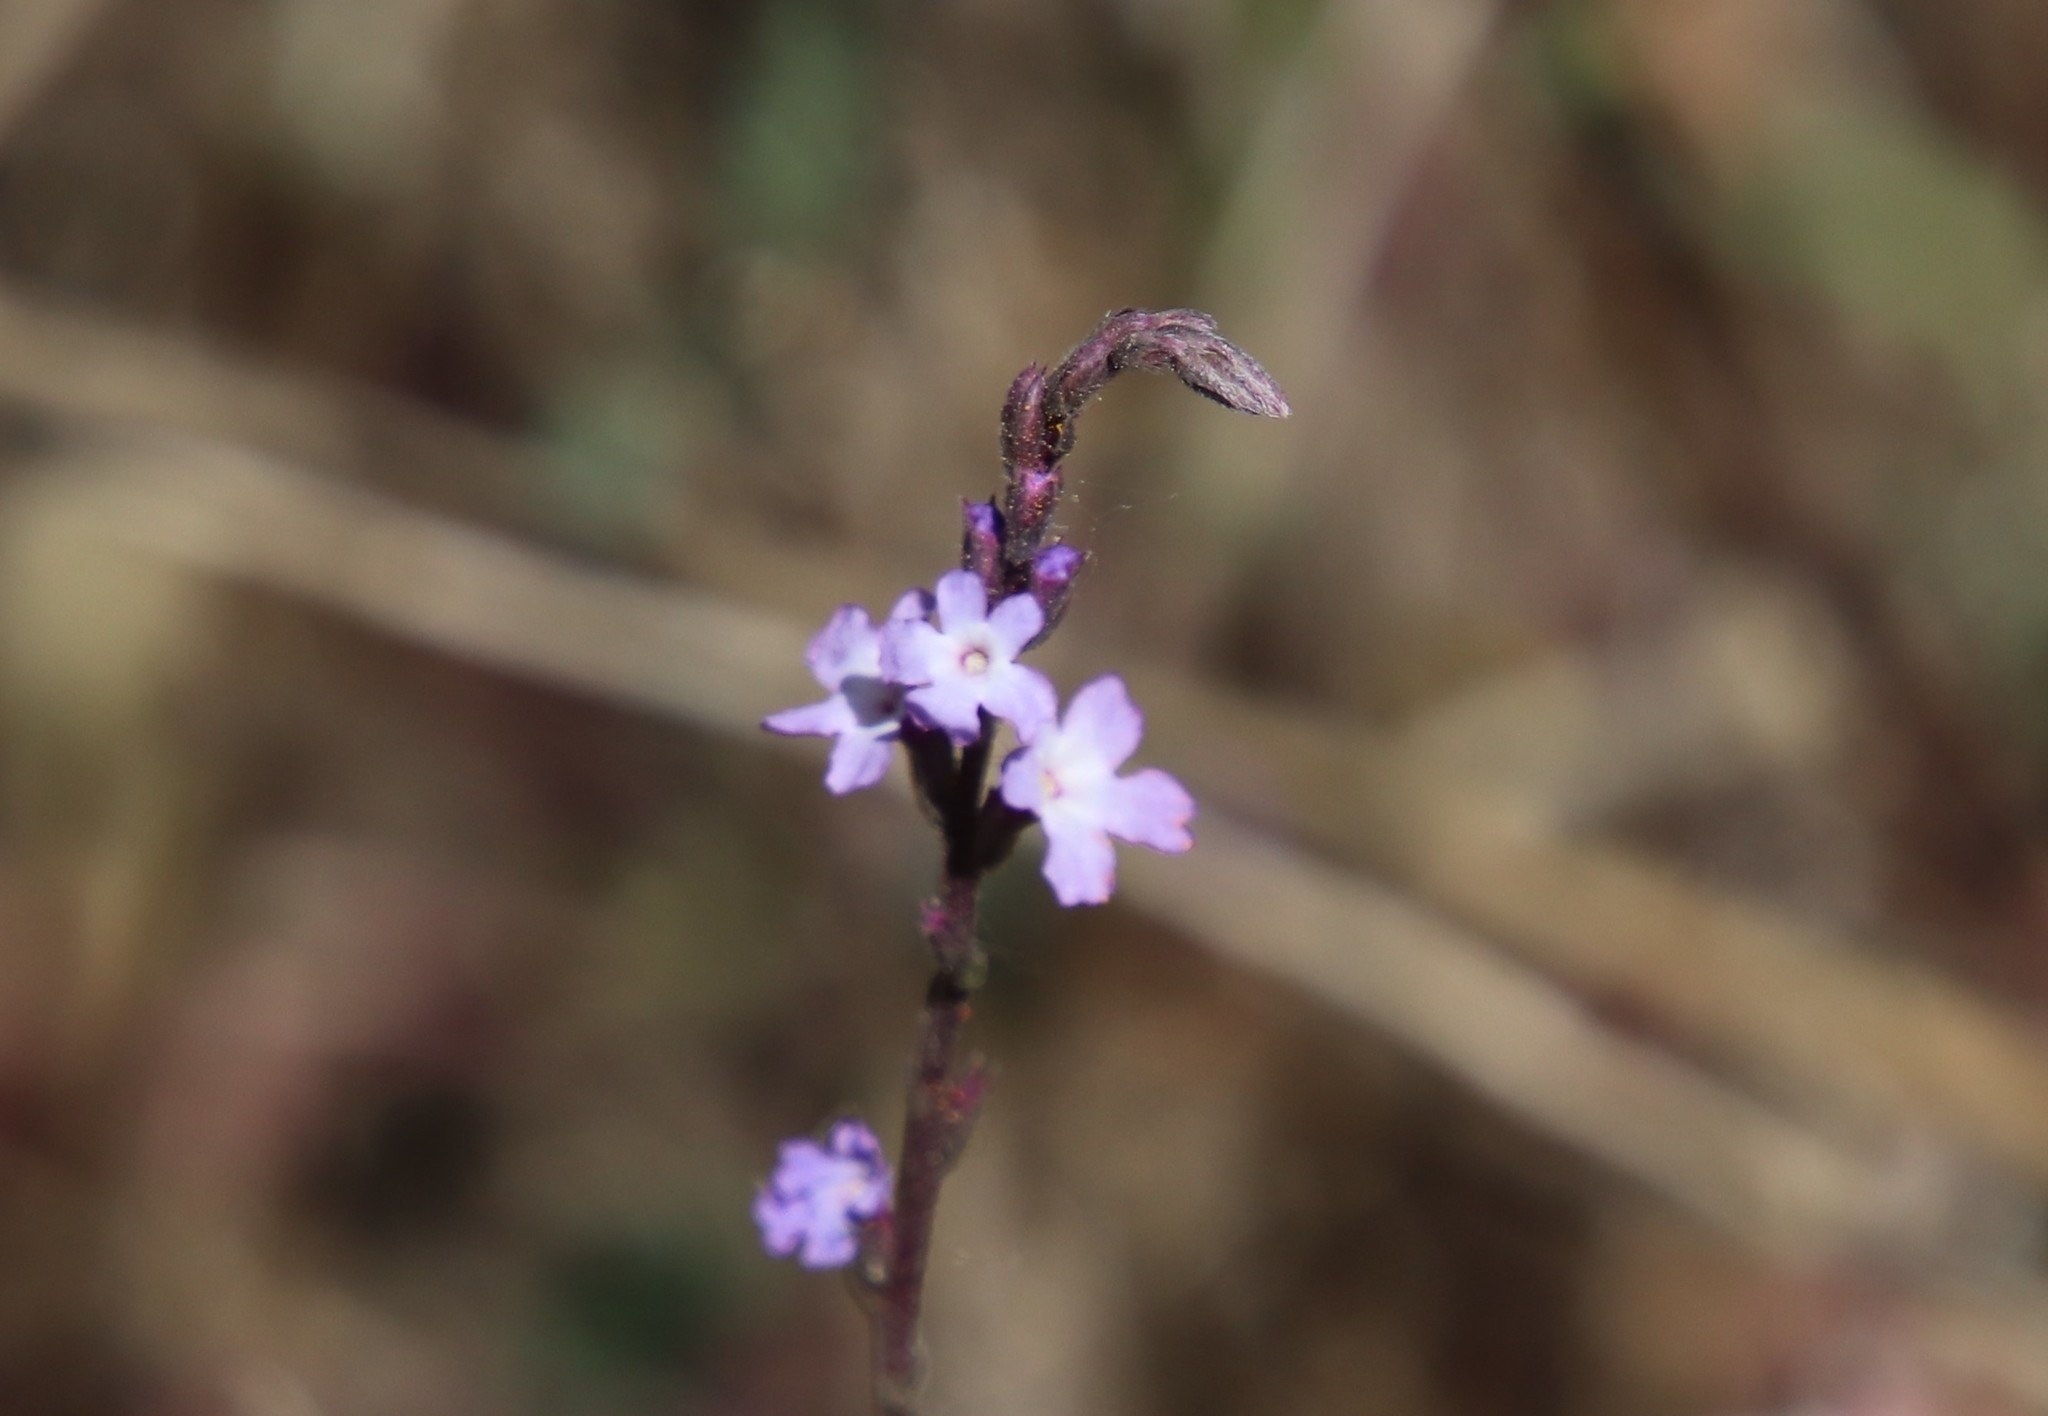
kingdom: Plantae
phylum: Tracheophyta
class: Magnoliopsida
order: Lamiales
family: Verbenaceae
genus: Verbena
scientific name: Verbena menthifolia
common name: Mint-leaf vervain
